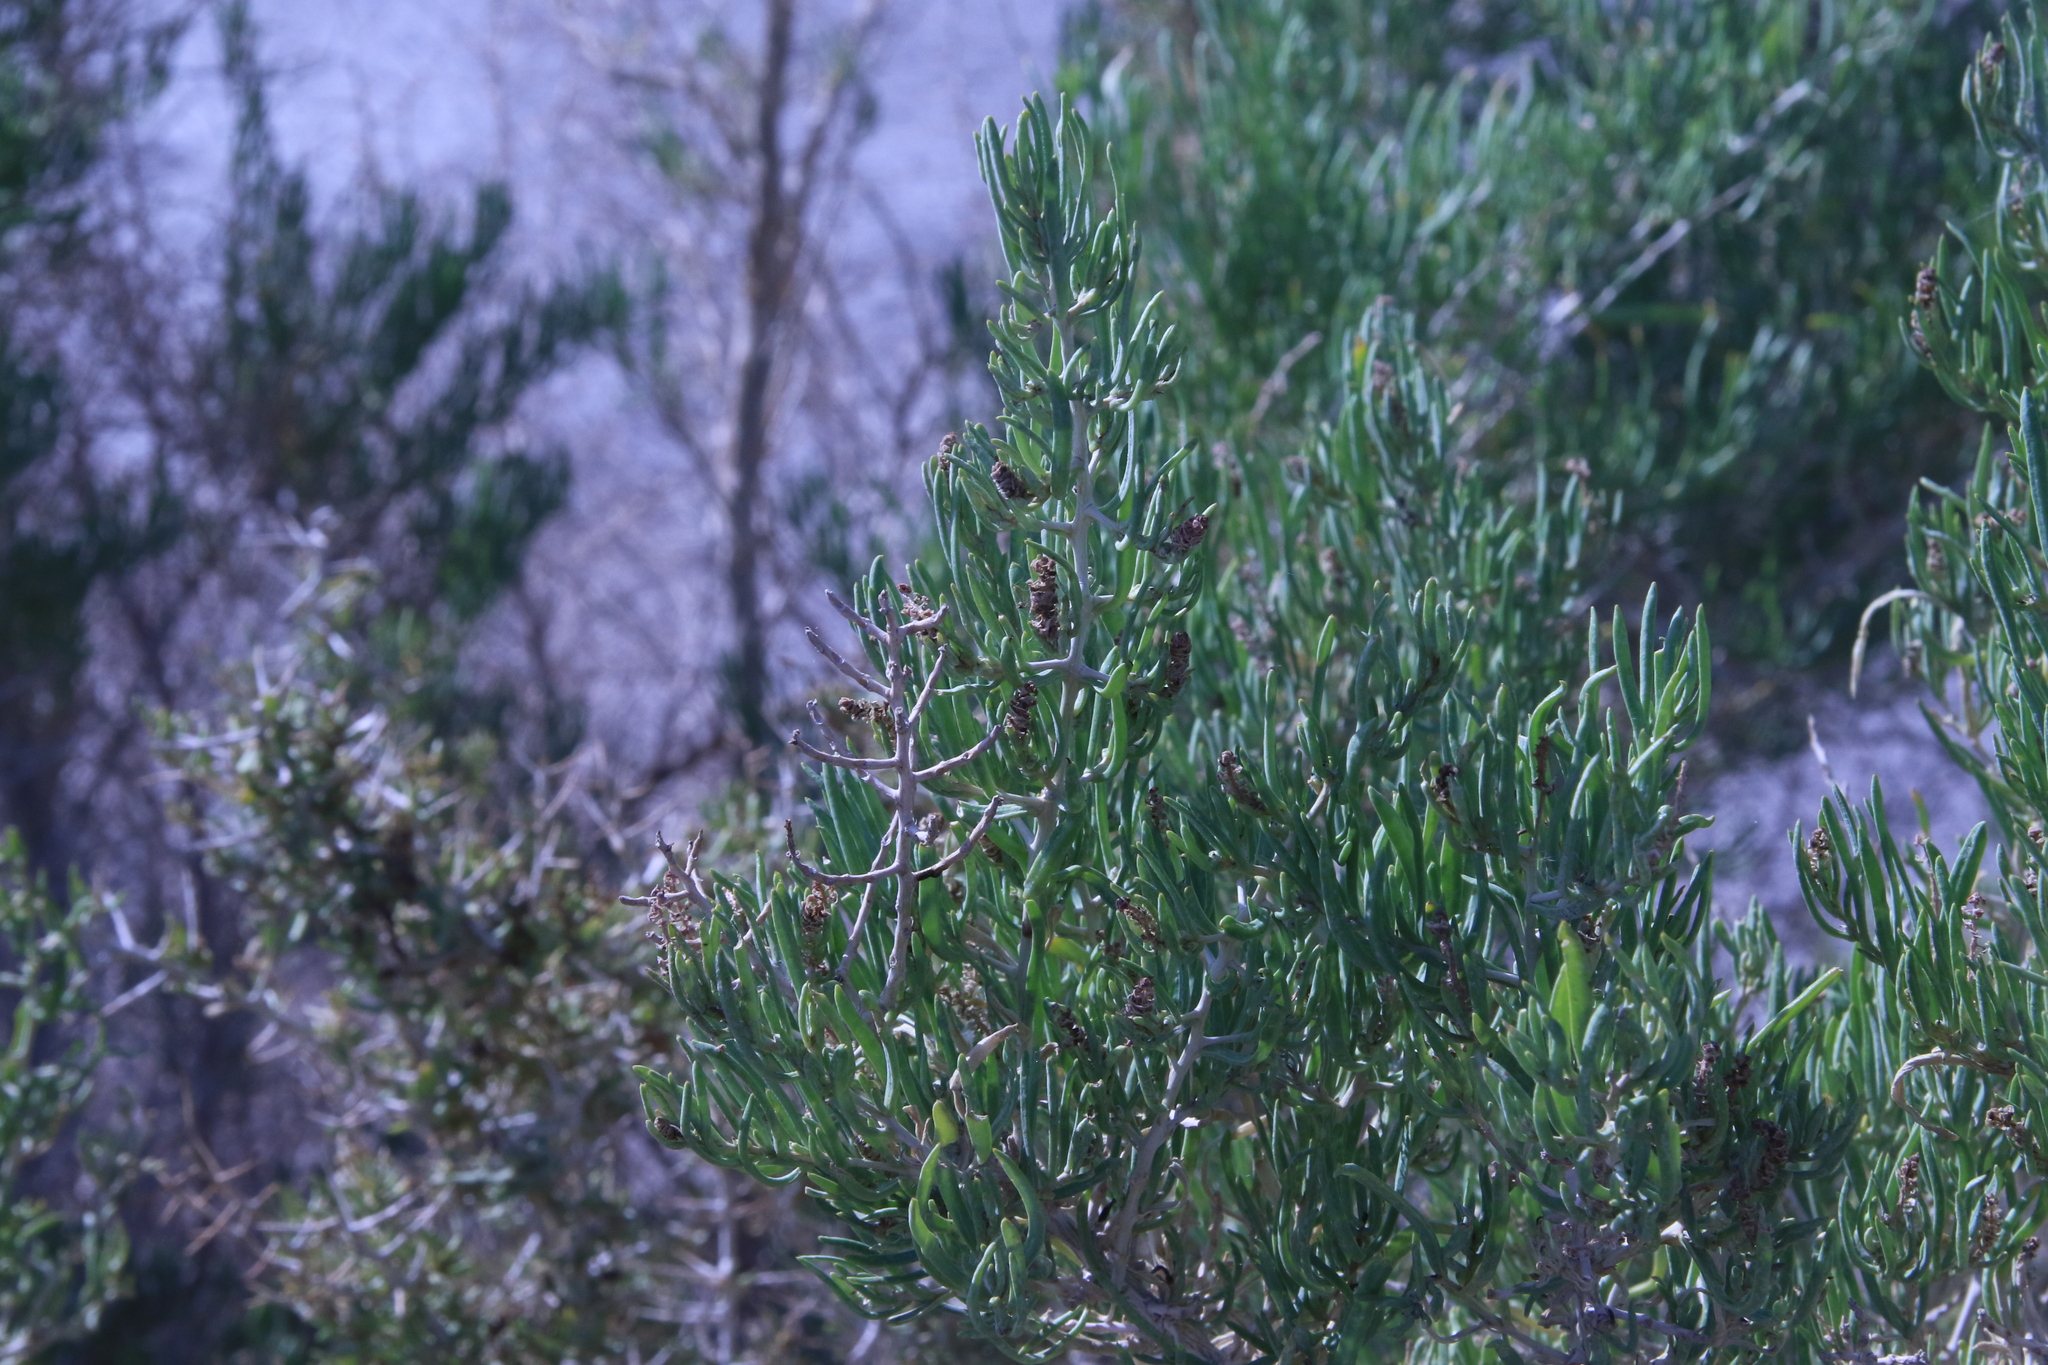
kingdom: Plantae
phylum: Tracheophyta
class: Magnoliopsida
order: Caryophyllales
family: Sarcobataceae
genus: Sarcobatus
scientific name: Sarcobatus vermiculatus
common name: Greasewood
